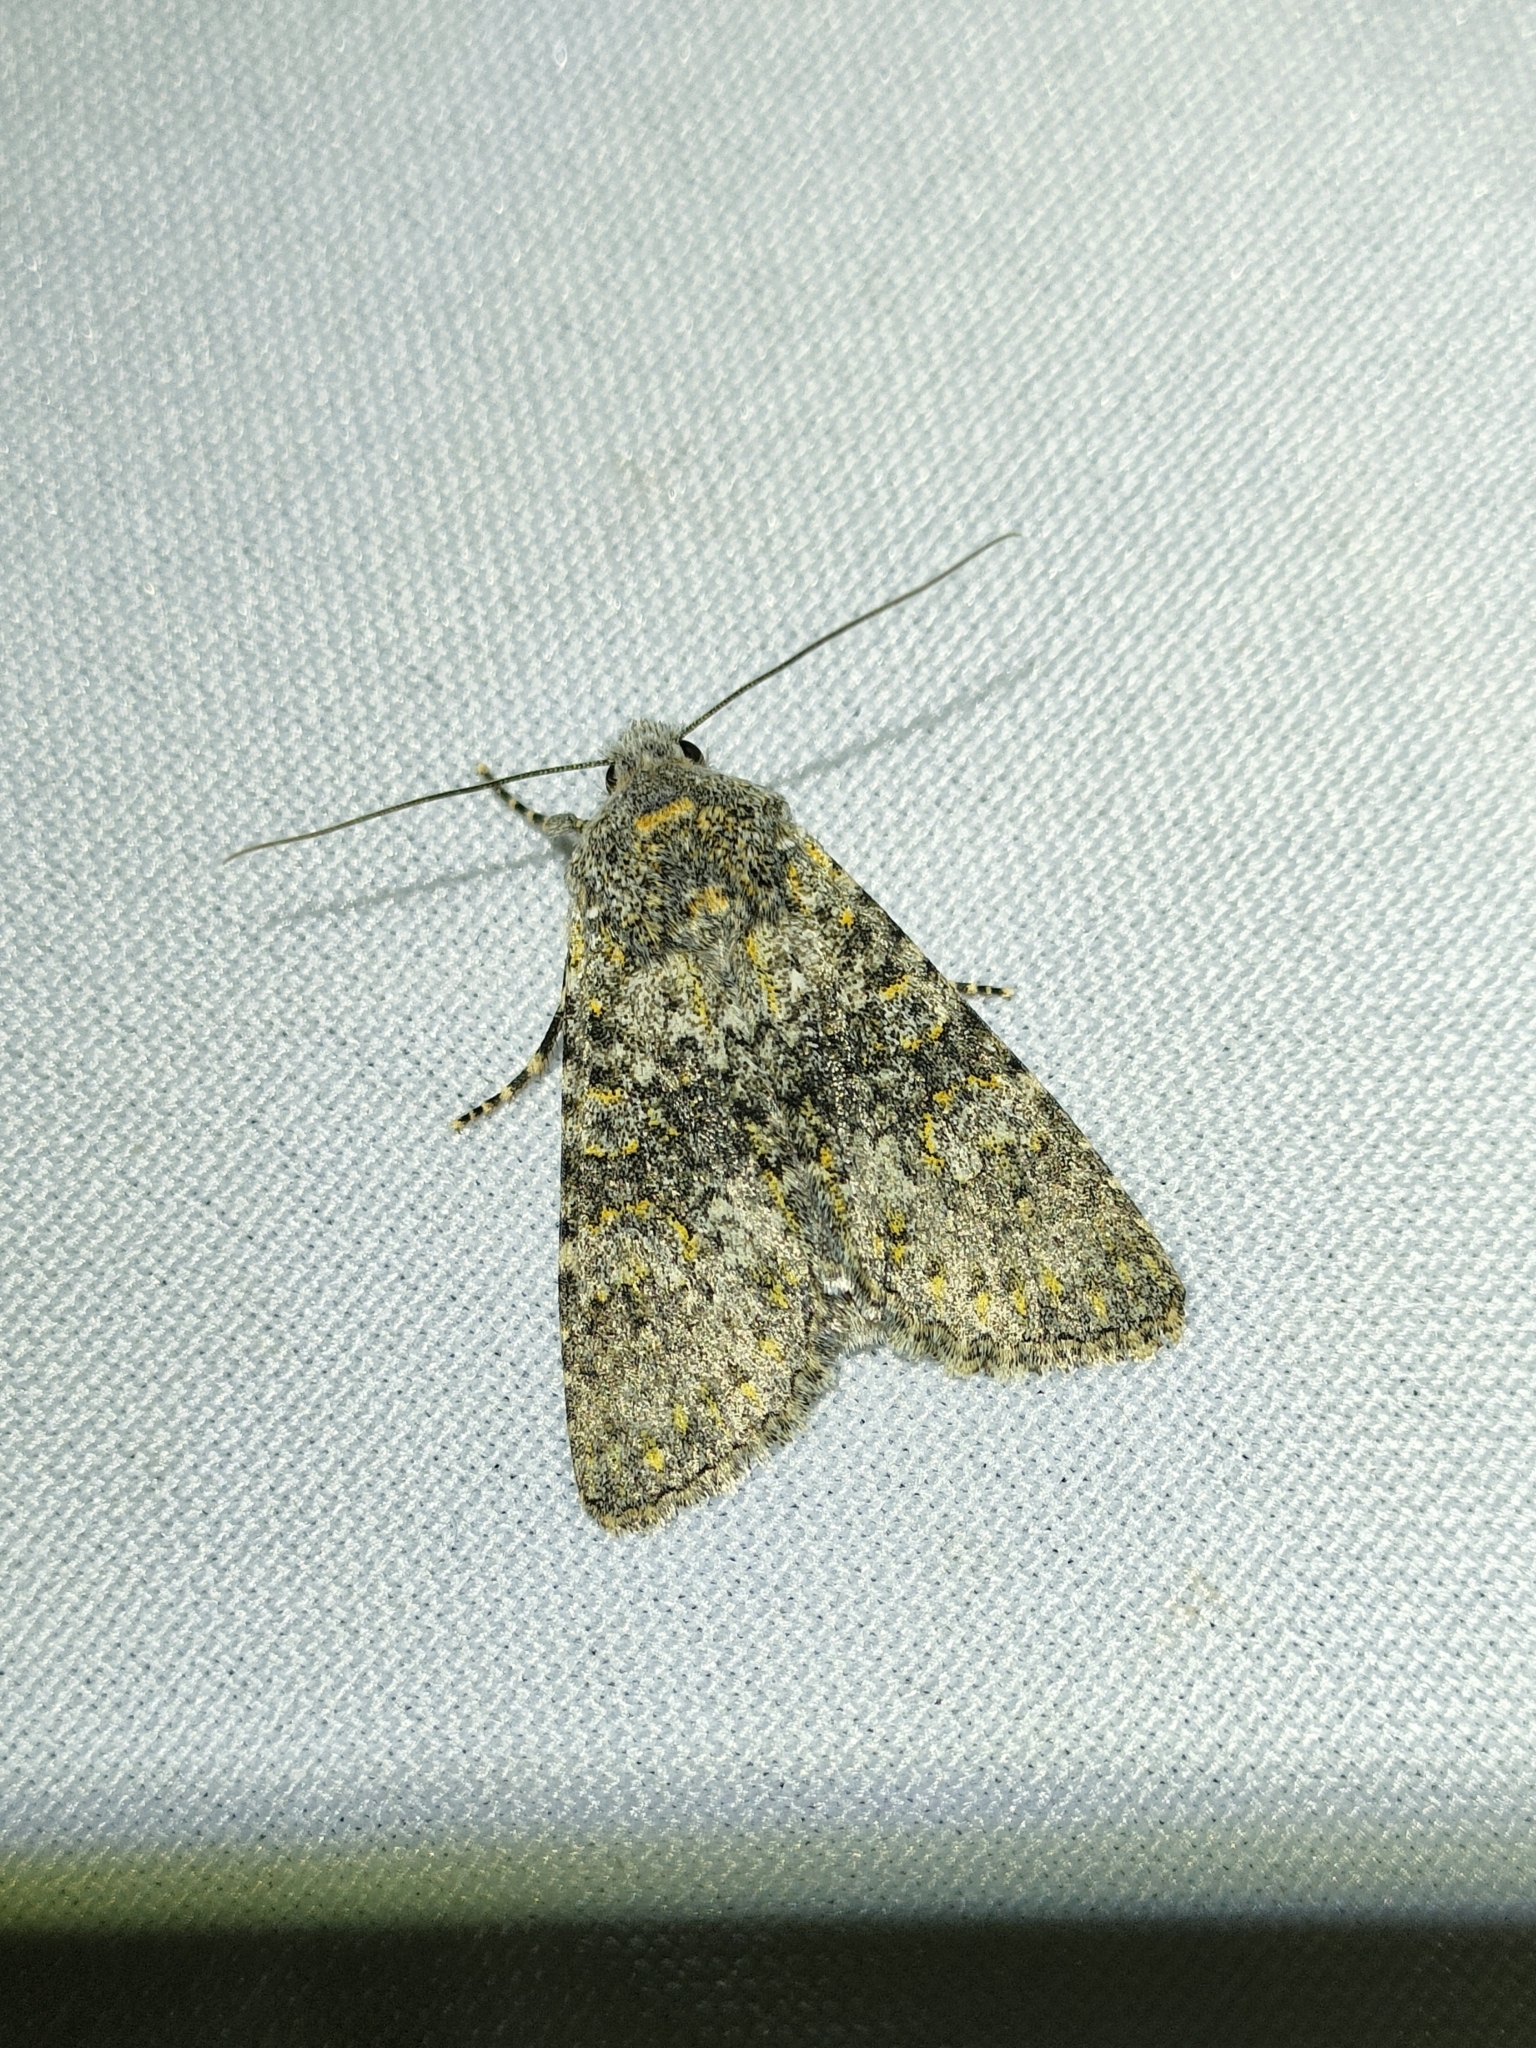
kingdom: Animalia
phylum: Arthropoda
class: Insecta
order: Lepidoptera
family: Noctuidae
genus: Polymixis
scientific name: Polymixis flavicincta
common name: Large ranunculus
